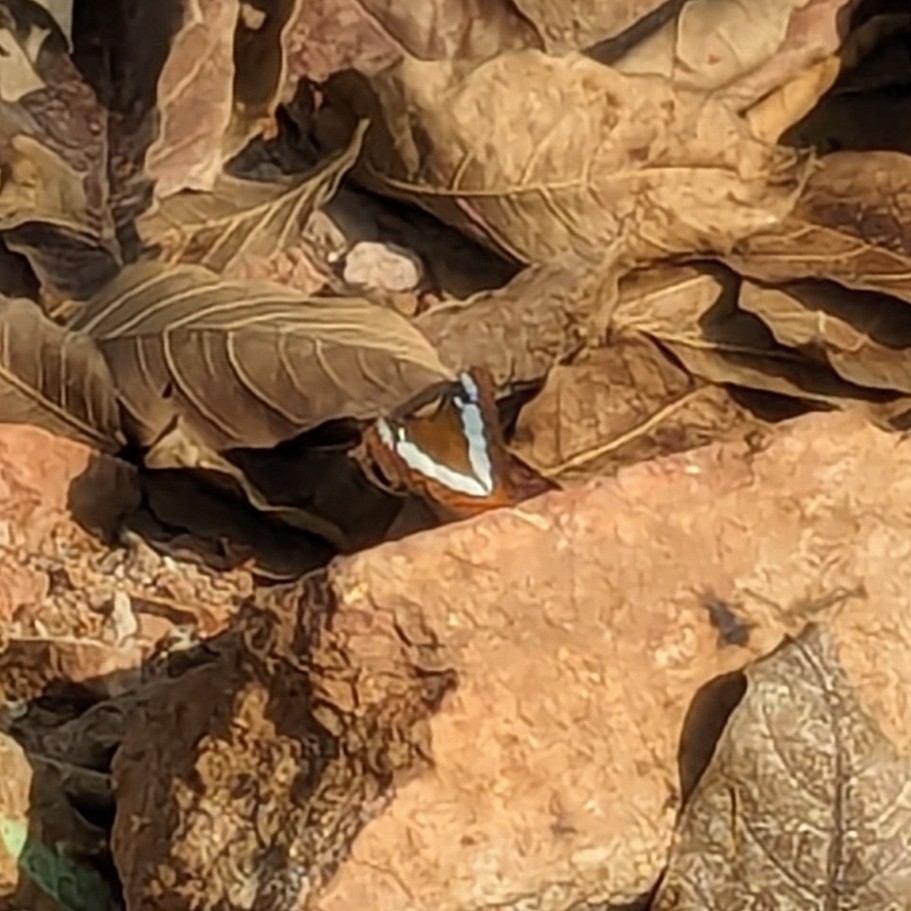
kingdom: Animalia
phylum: Arthropoda
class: Insecta
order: Lepidoptera
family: Nymphalidae
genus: Limenitis
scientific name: Limenitis Moduza procris
